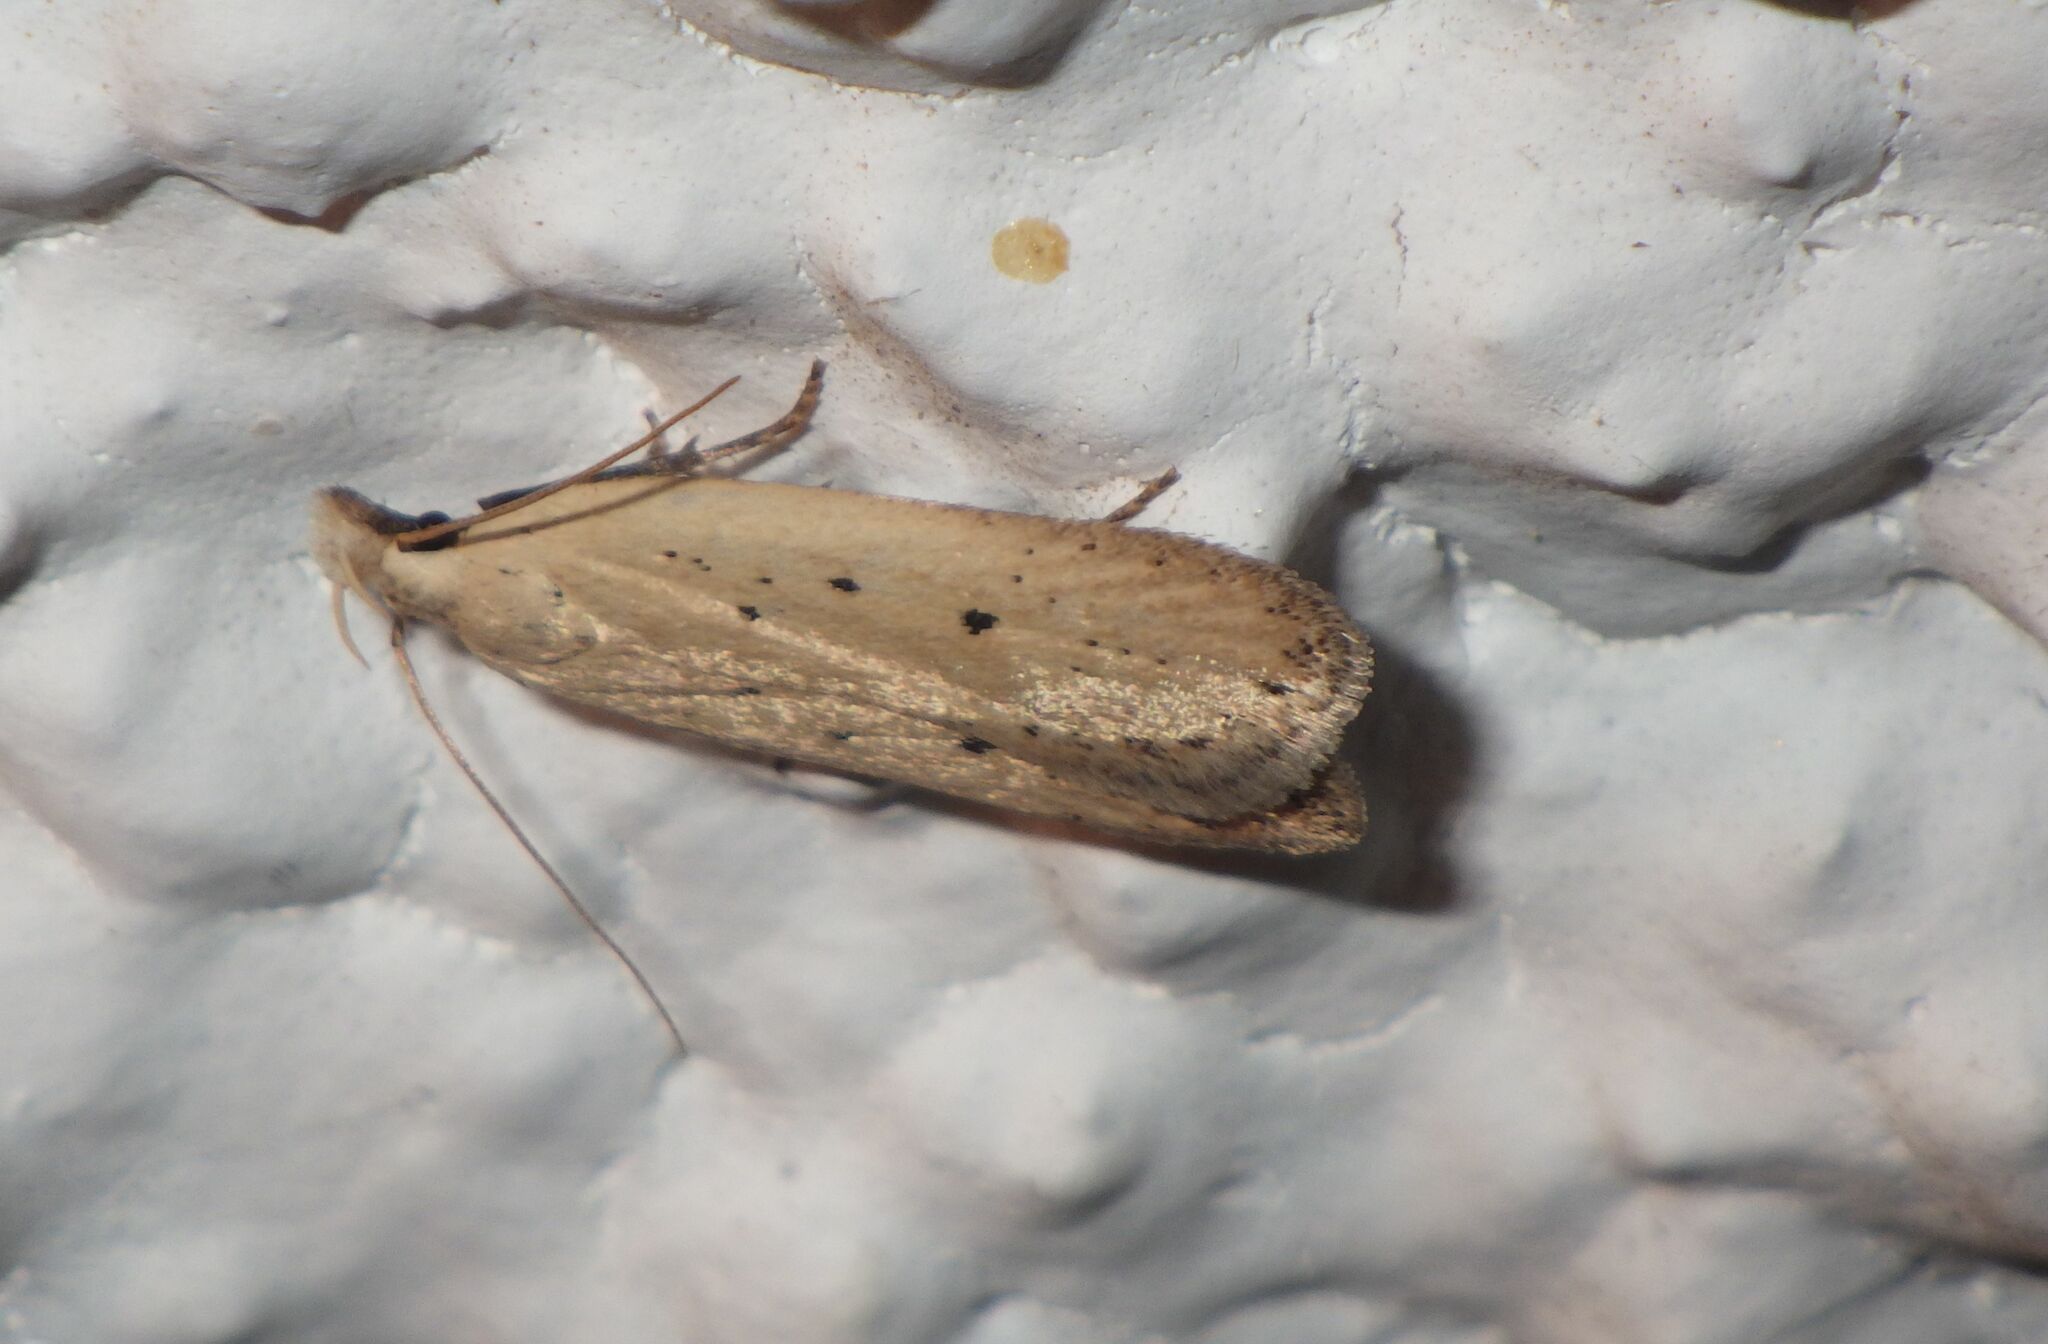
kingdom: Animalia
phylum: Arthropoda
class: Insecta
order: Lepidoptera
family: Gelechiidae
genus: Nothris
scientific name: Nothris verbascella
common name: Clay groundling
